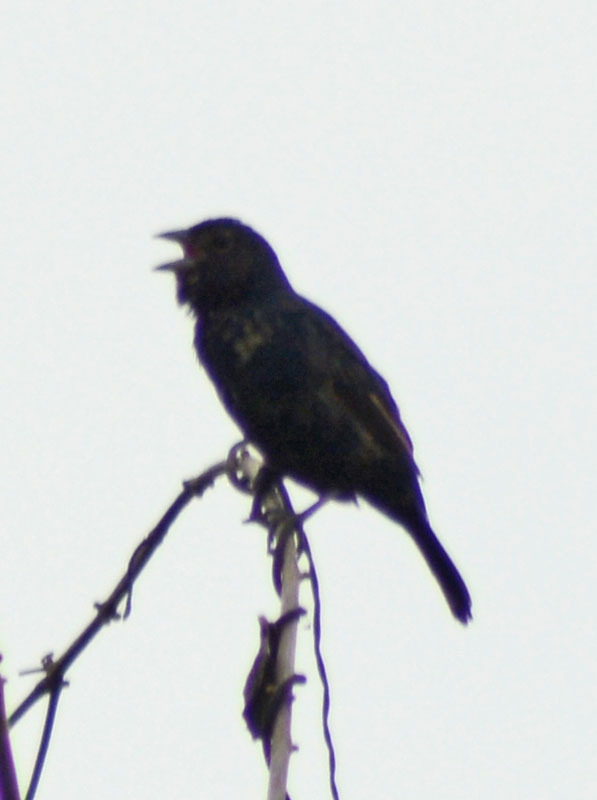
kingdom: Animalia
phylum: Chordata
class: Aves
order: Passeriformes
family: Thraupidae
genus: Volatinia
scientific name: Volatinia jacarina
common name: Blue-black grassquit
